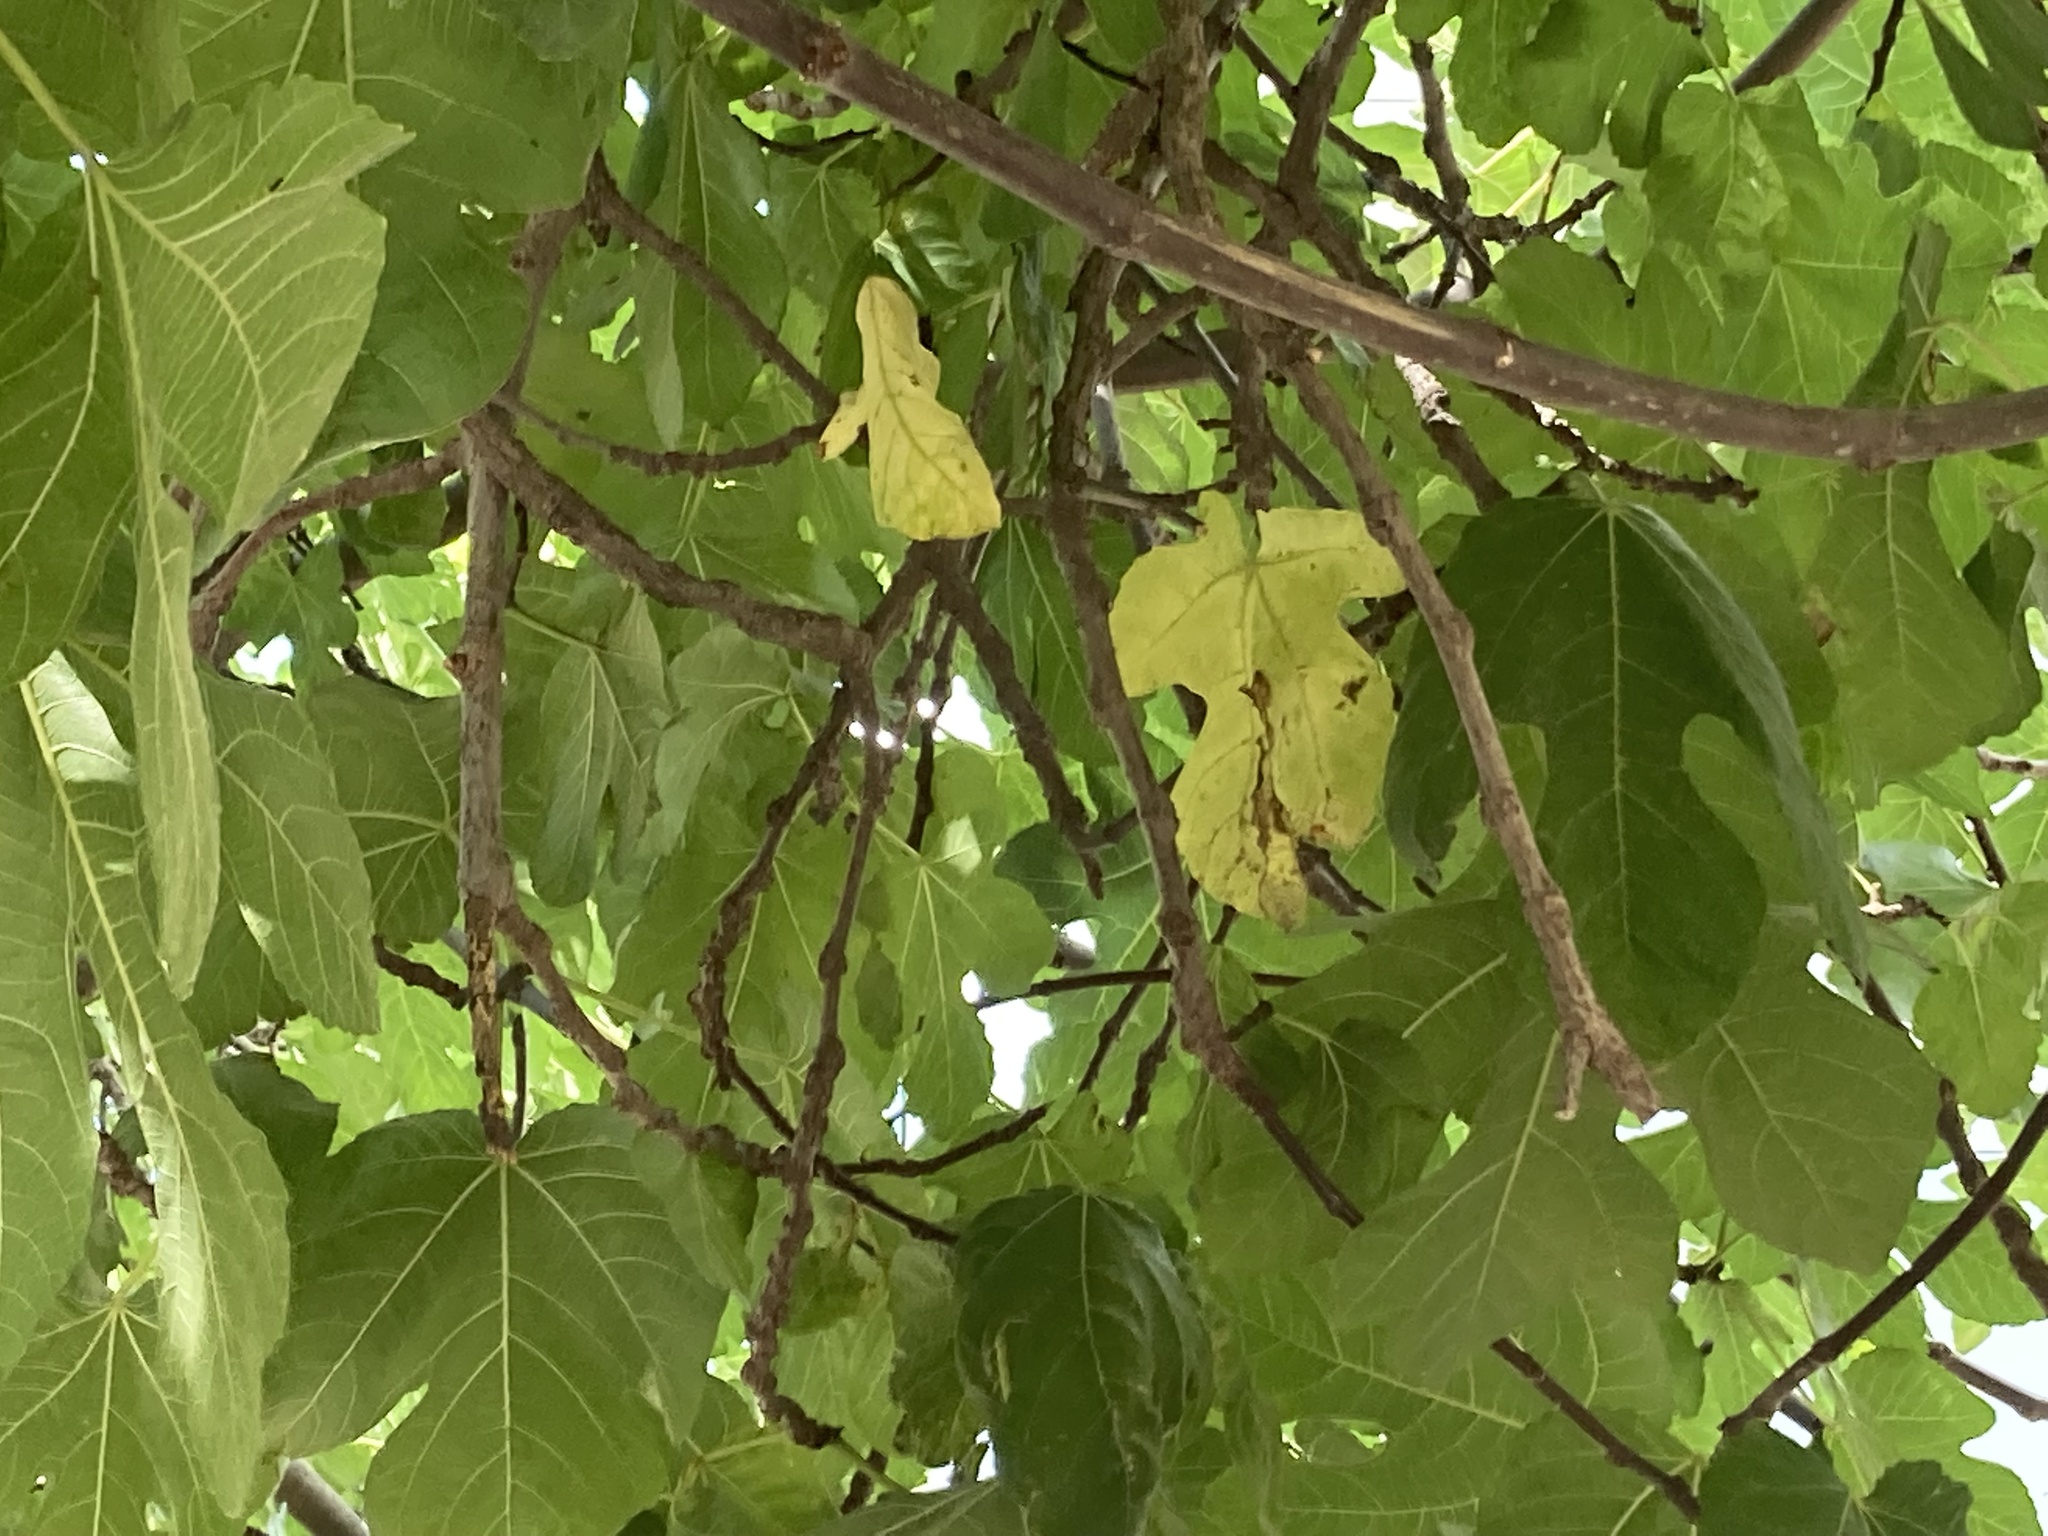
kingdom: Plantae
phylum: Tracheophyta
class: Magnoliopsida
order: Rosales
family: Moraceae
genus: Ficus
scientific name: Ficus carica
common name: Fig
